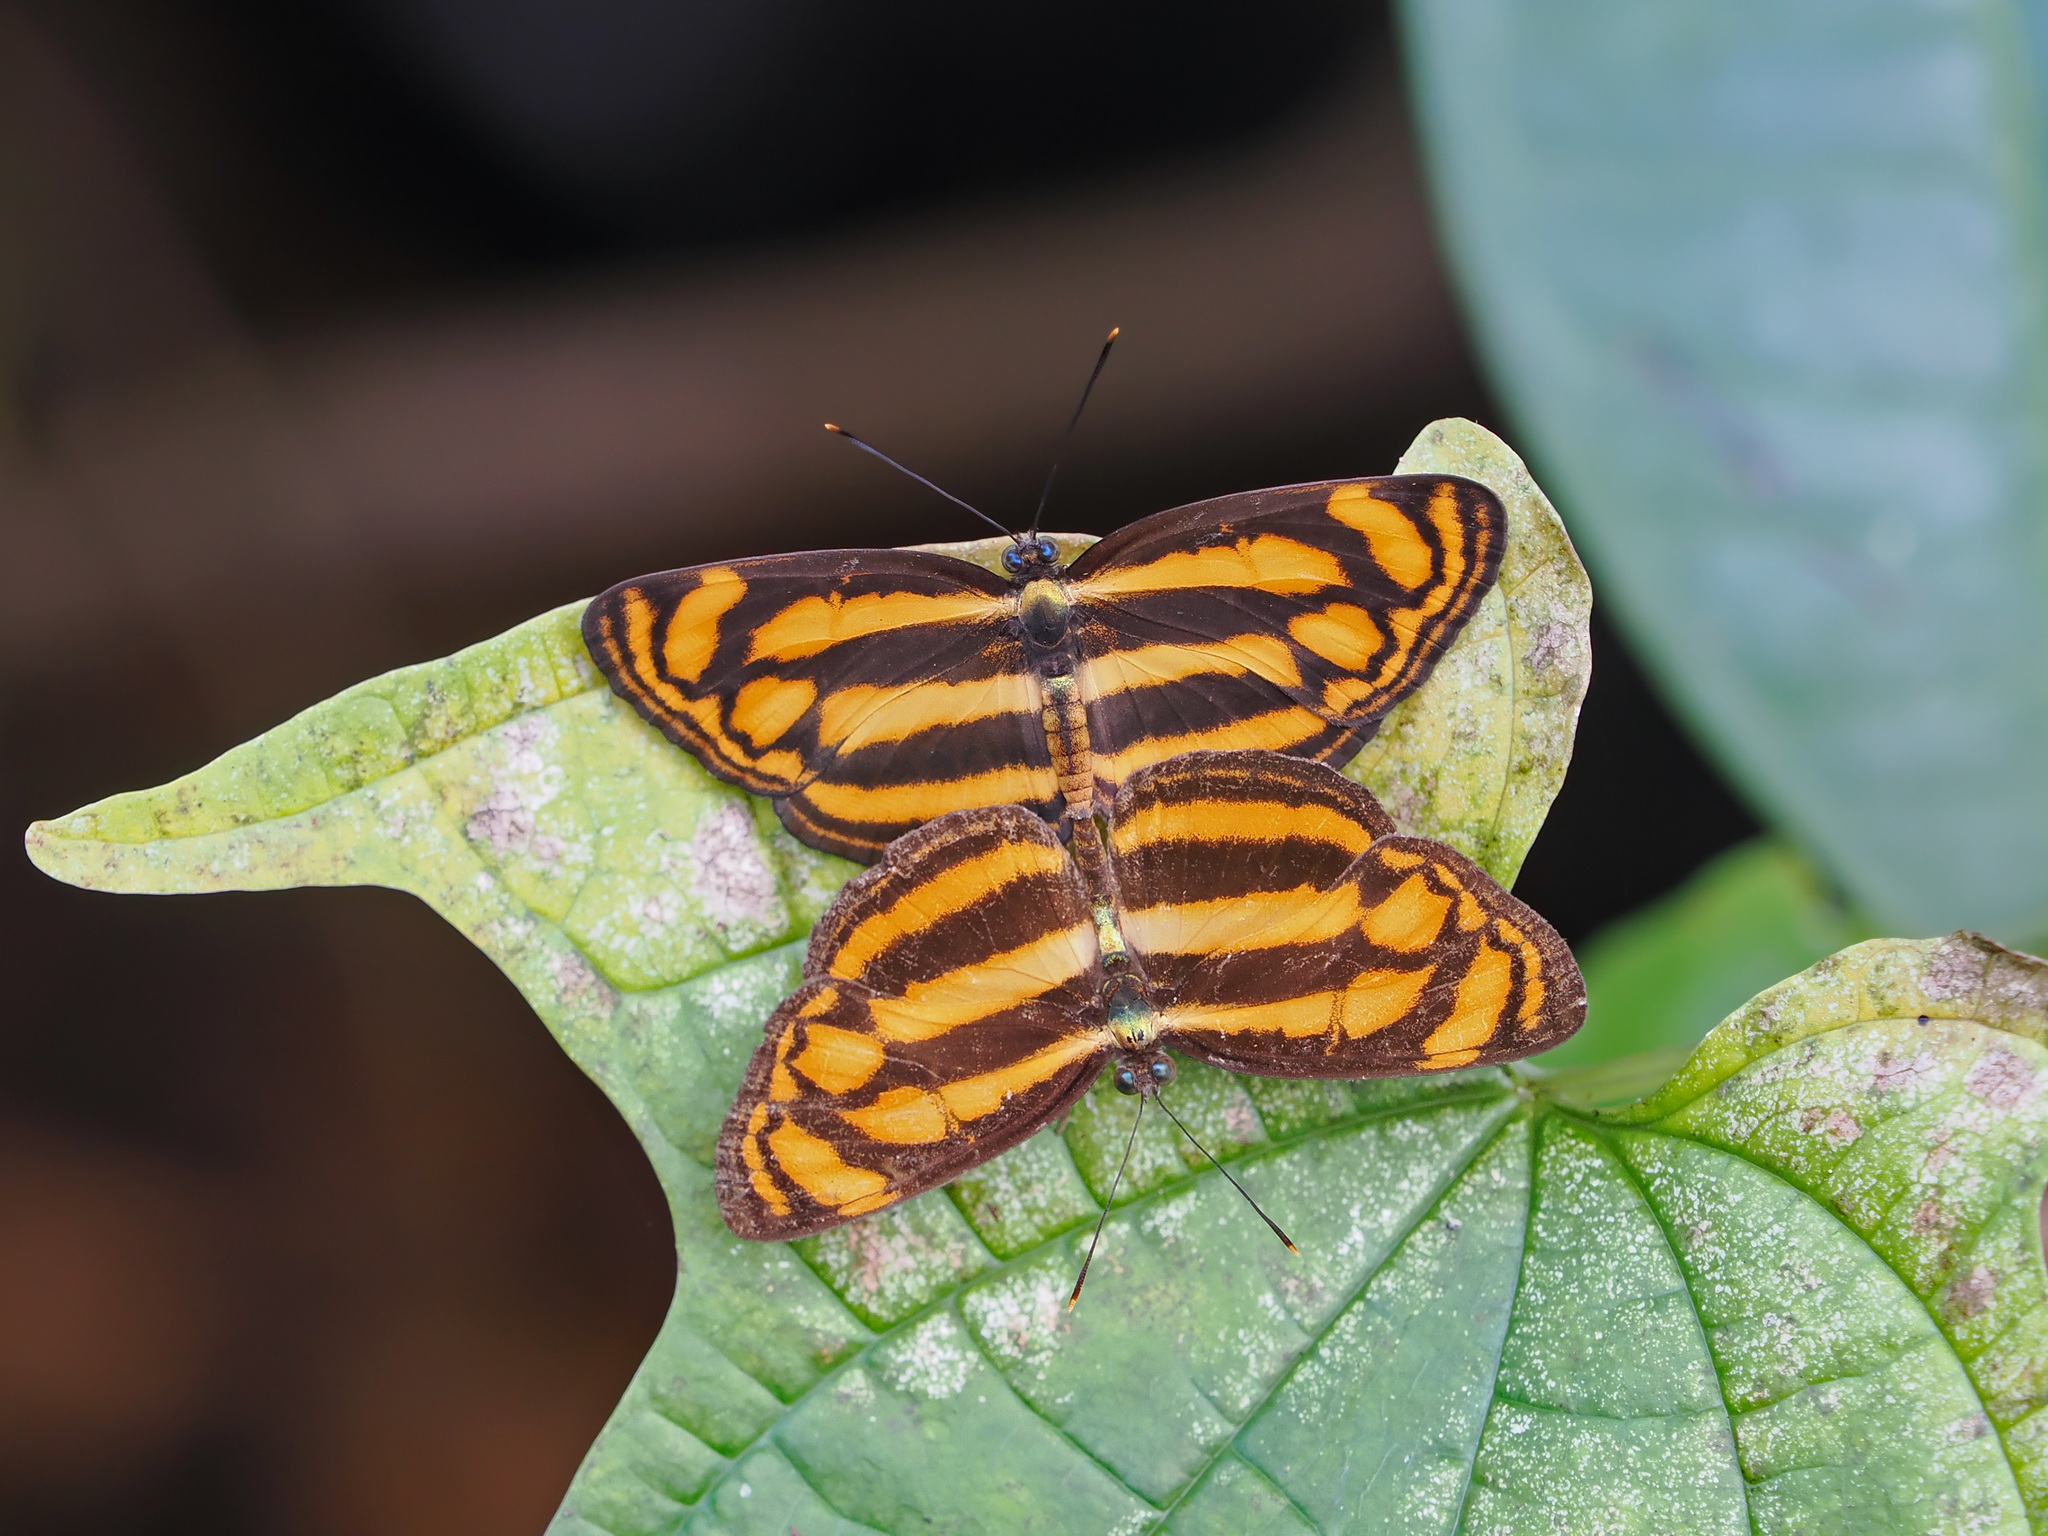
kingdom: Animalia
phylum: Arthropoda
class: Insecta
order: Lepidoptera
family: Nymphalidae
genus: Lasippa
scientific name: Lasippa tiga
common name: Malayan lascar
